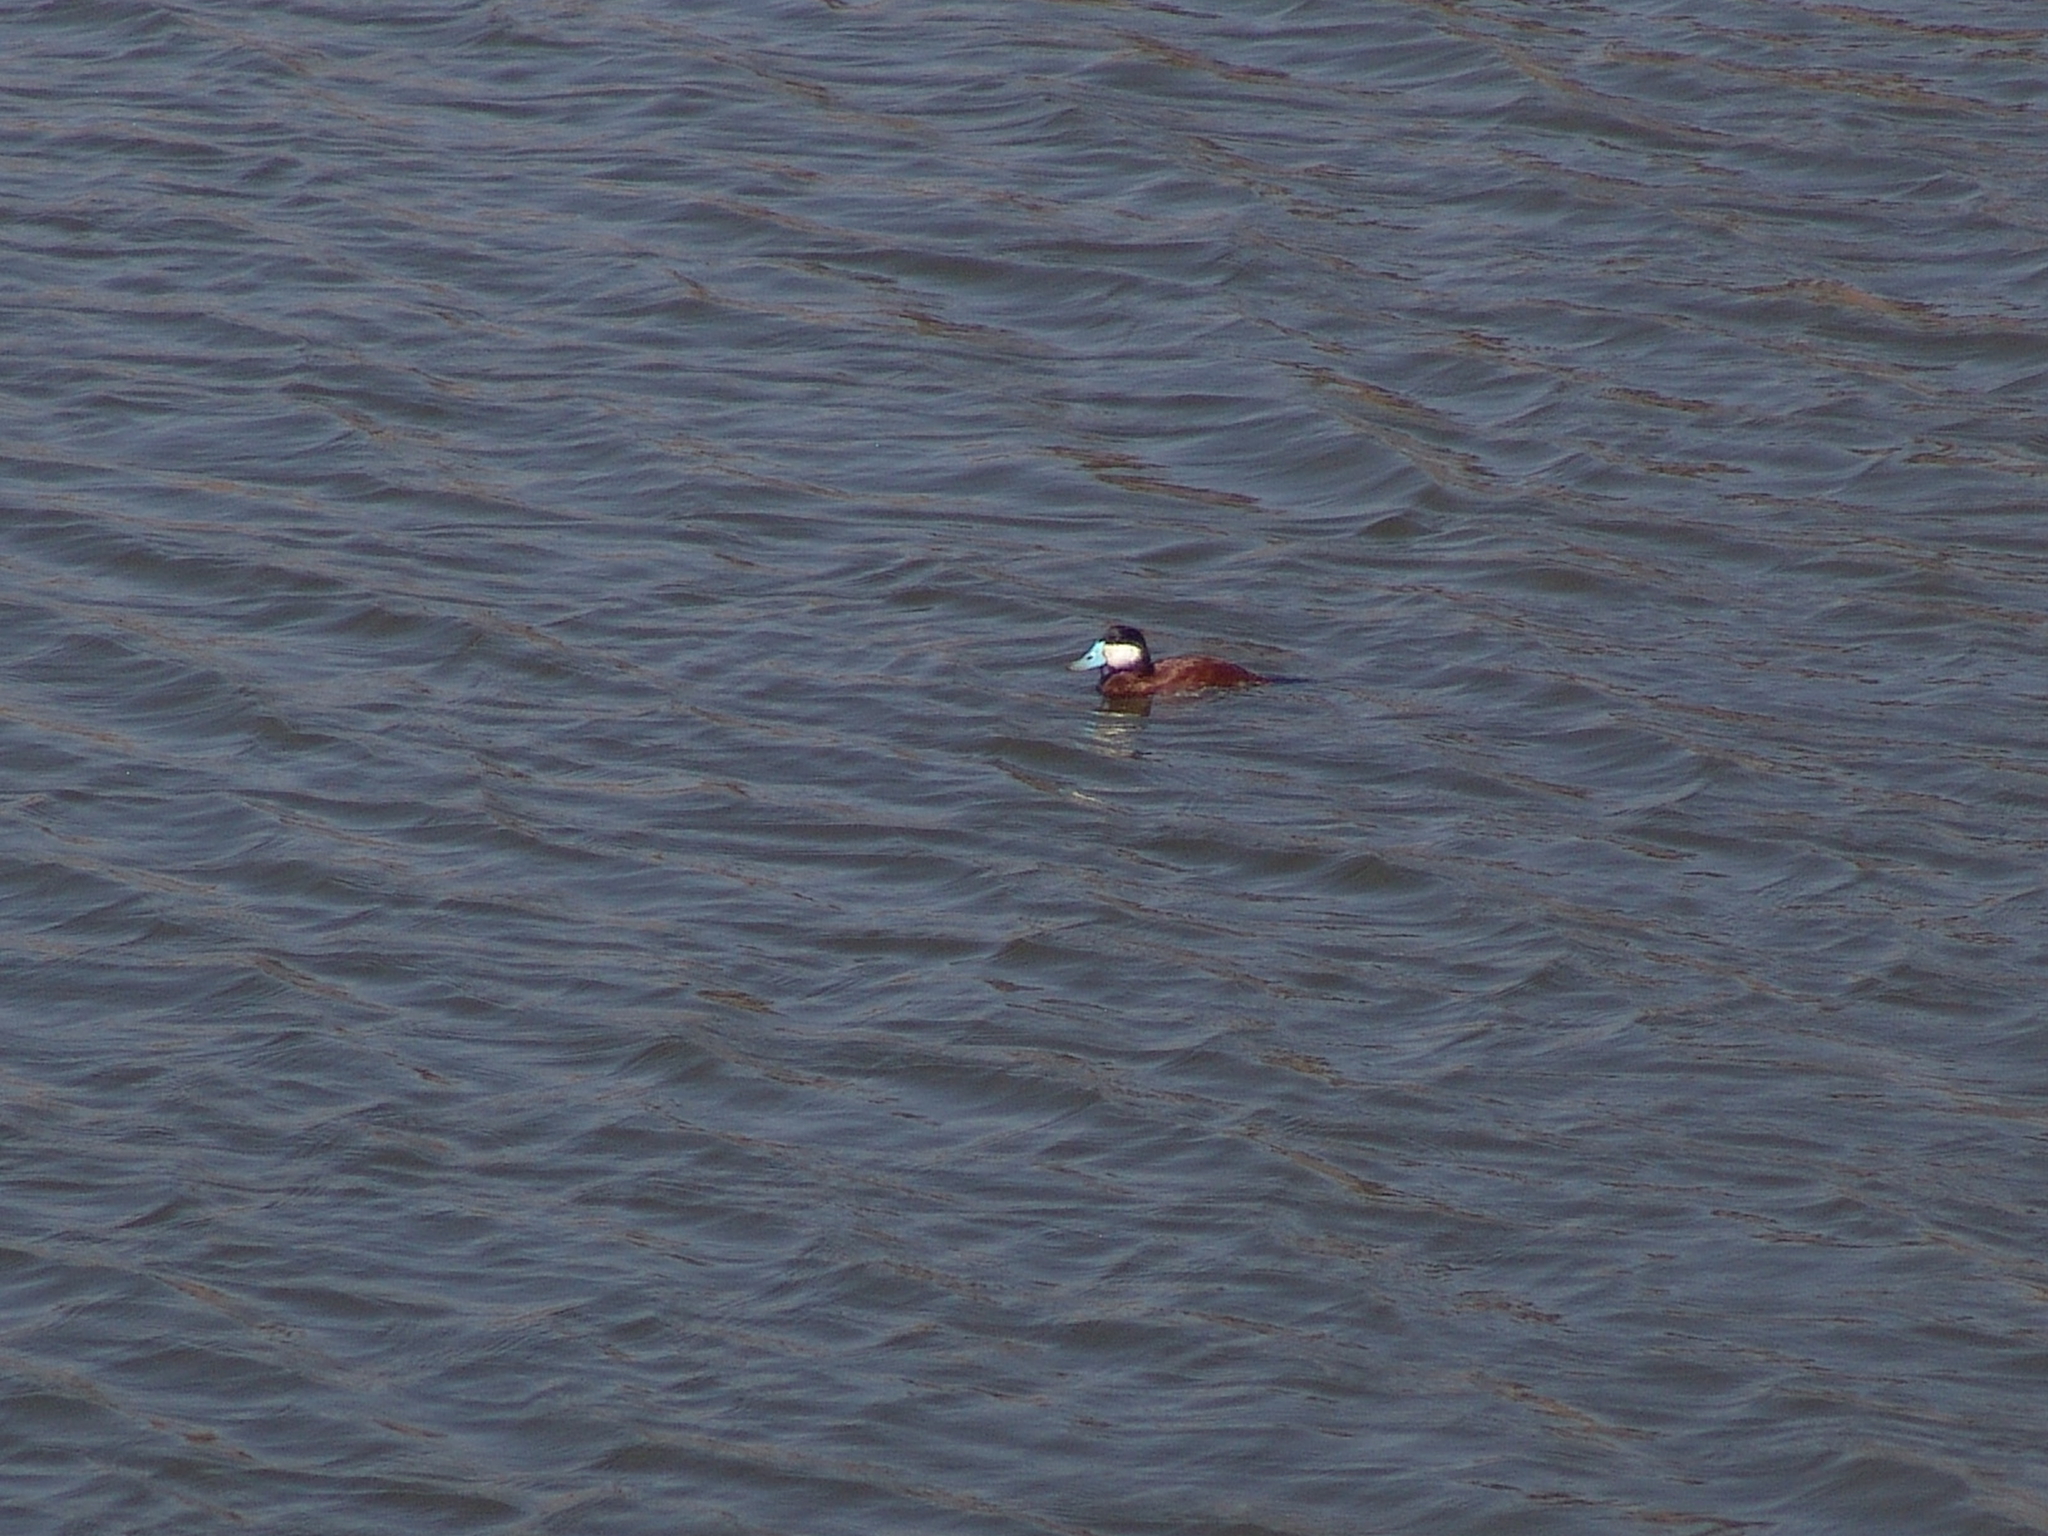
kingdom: Animalia
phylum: Chordata
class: Aves
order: Anseriformes
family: Anatidae
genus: Oxyura
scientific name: Oxyura jamaicensis
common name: Ruddy duck
